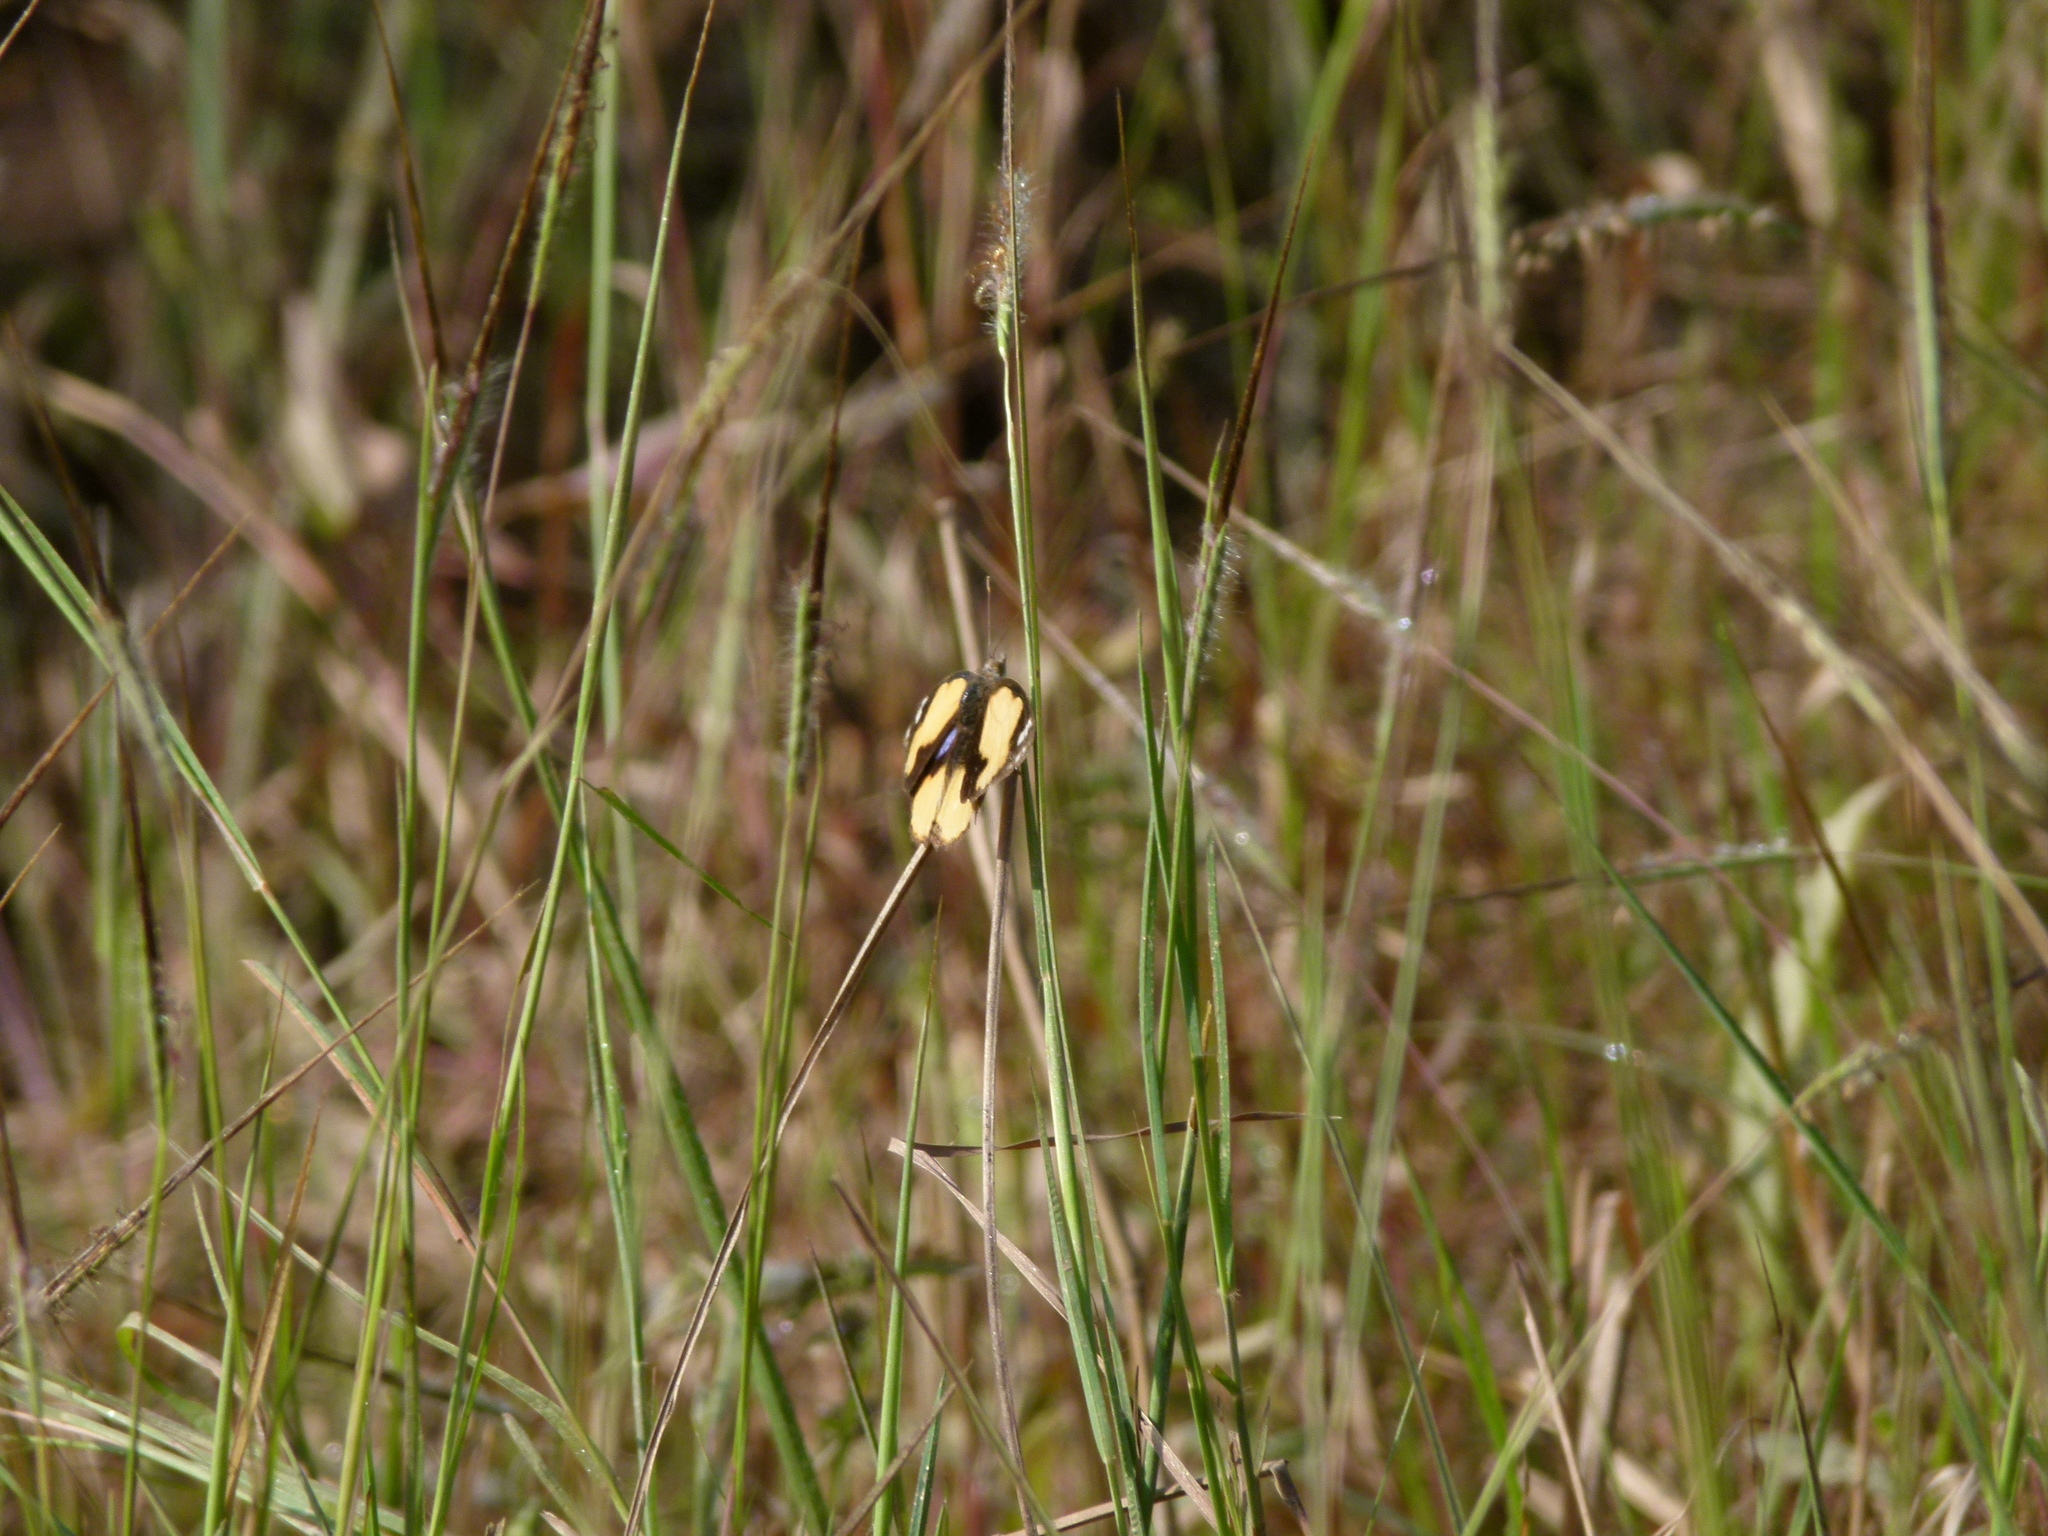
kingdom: Animalia
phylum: Arthropoda
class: Insecta
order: Lepidoptera
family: Nymphalidae
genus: Junonia
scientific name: Junonia hierta
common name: Yellow pansy
